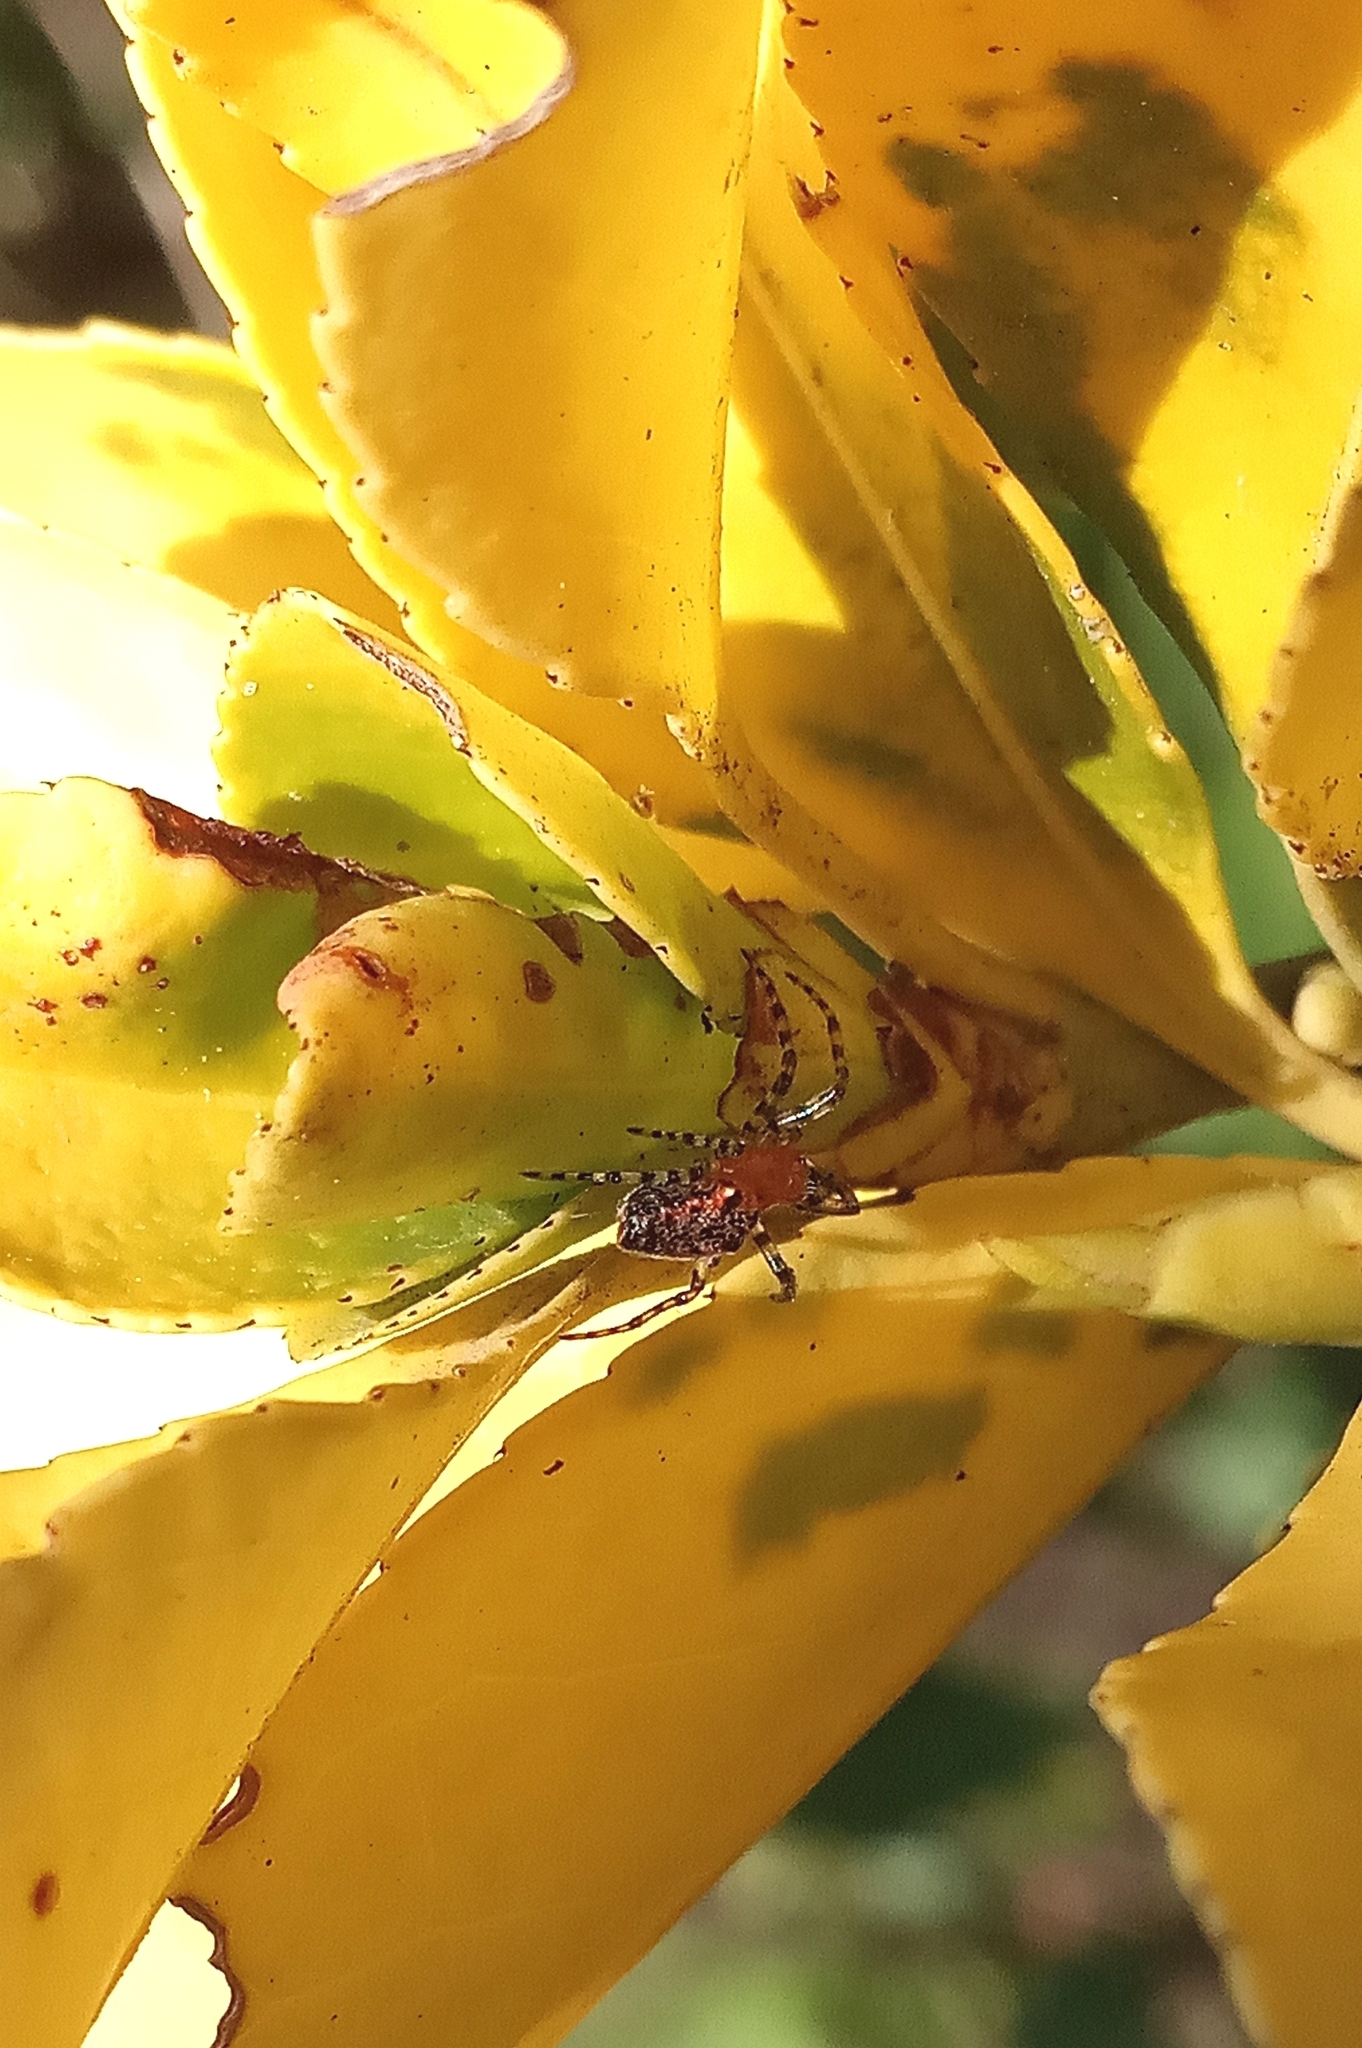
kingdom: Animalia
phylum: Arthropoda
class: Arachnida
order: Araneae
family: Araneidae
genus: Alpaida
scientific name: Alpaida gallardoi
